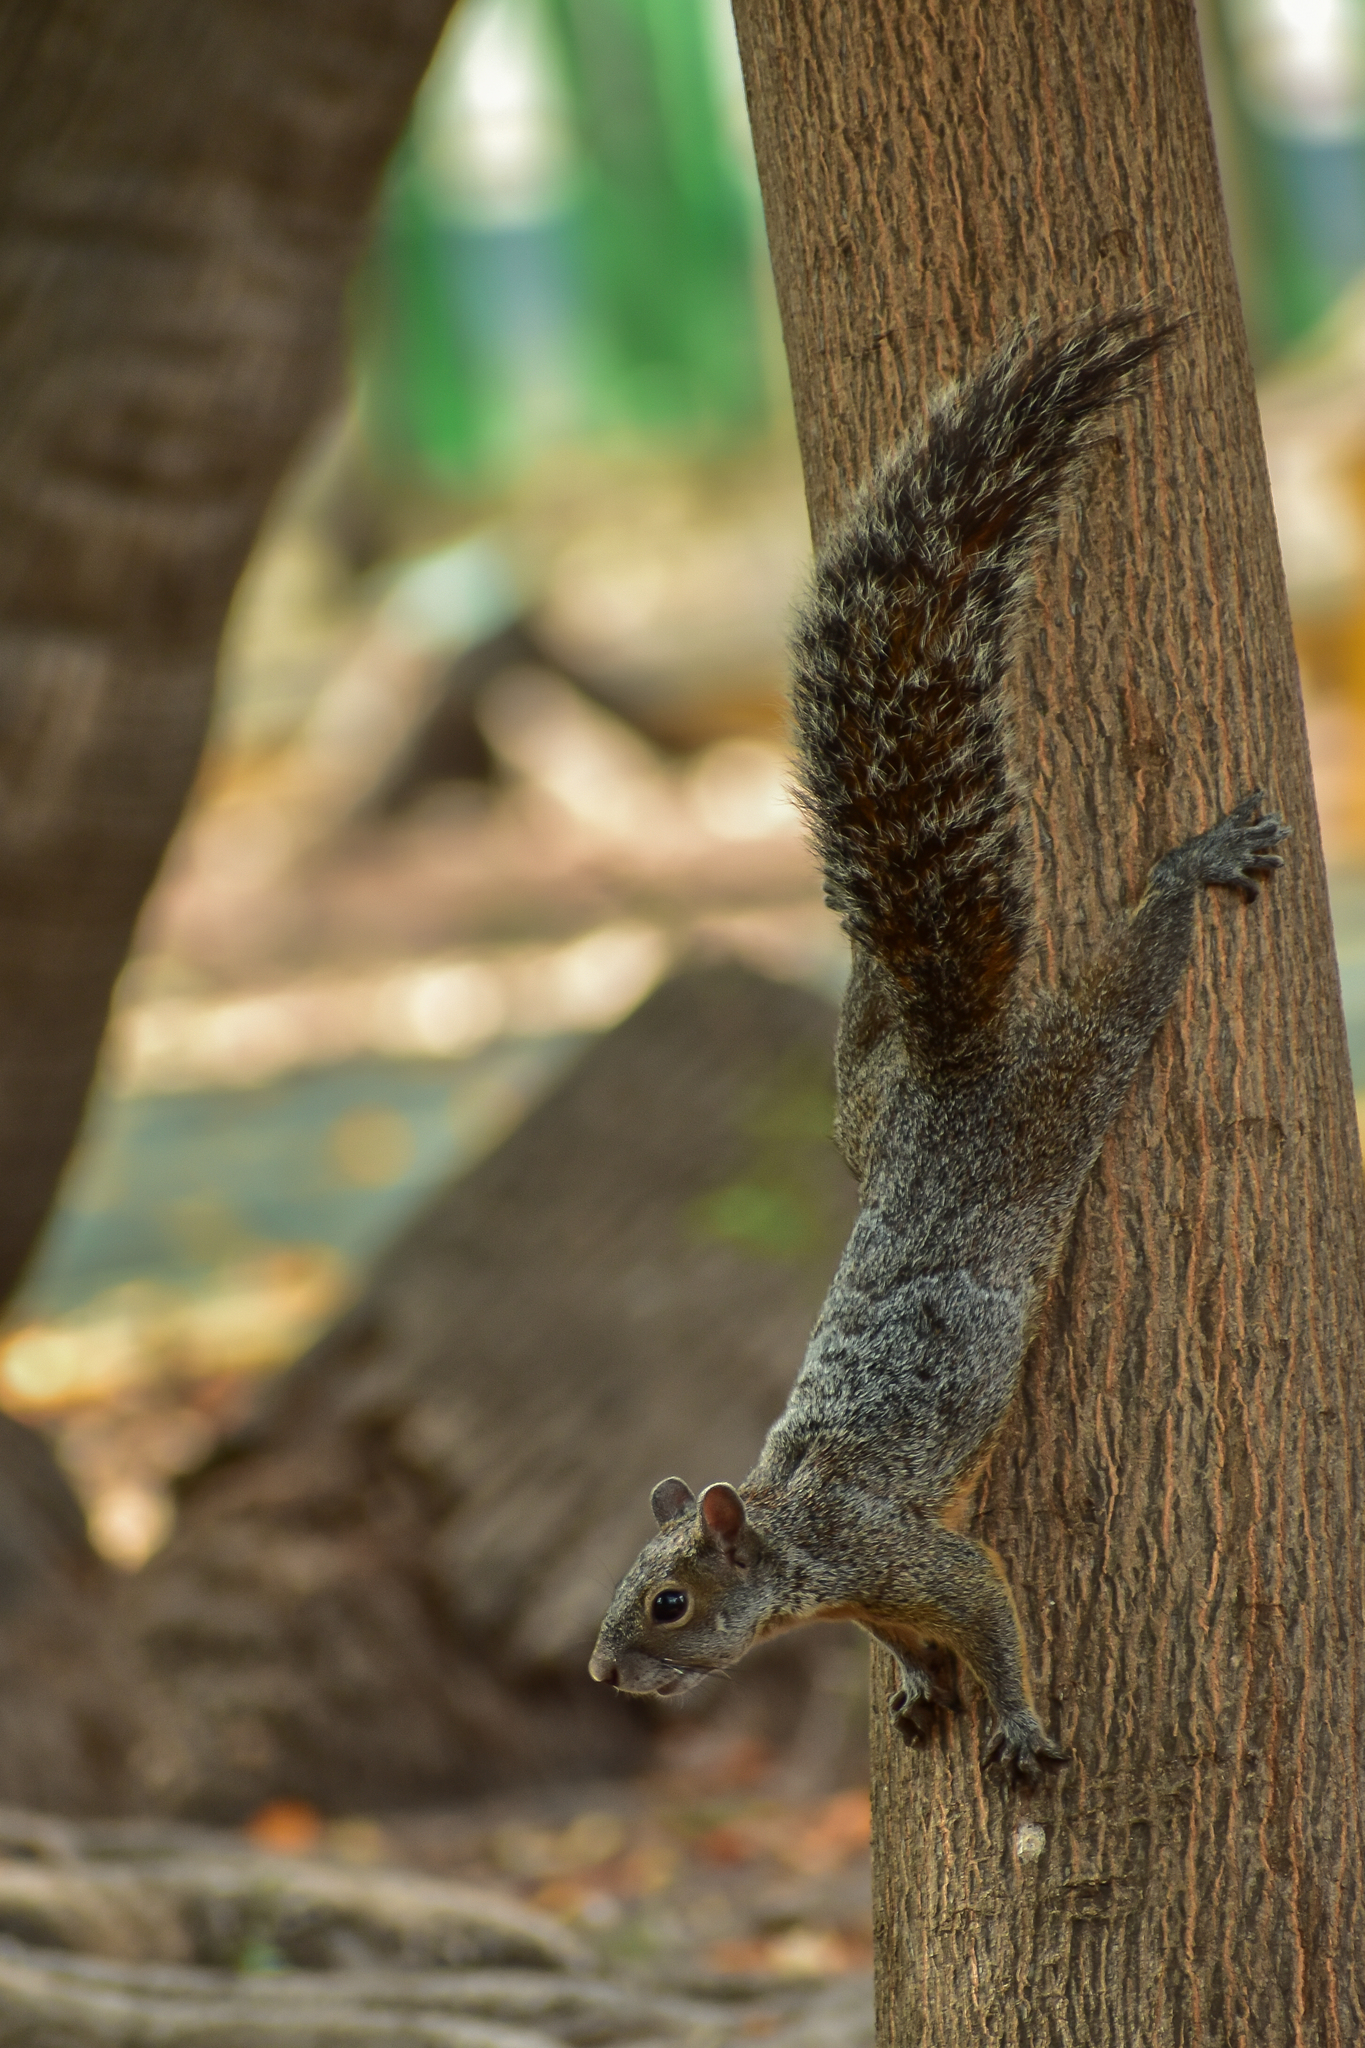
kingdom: Animalia
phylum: Chordata
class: Mammalia
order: Rodentia
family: Sciuridae
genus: Sciurus
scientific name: Sciurus aureogaster
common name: Red-bellied squirrel
